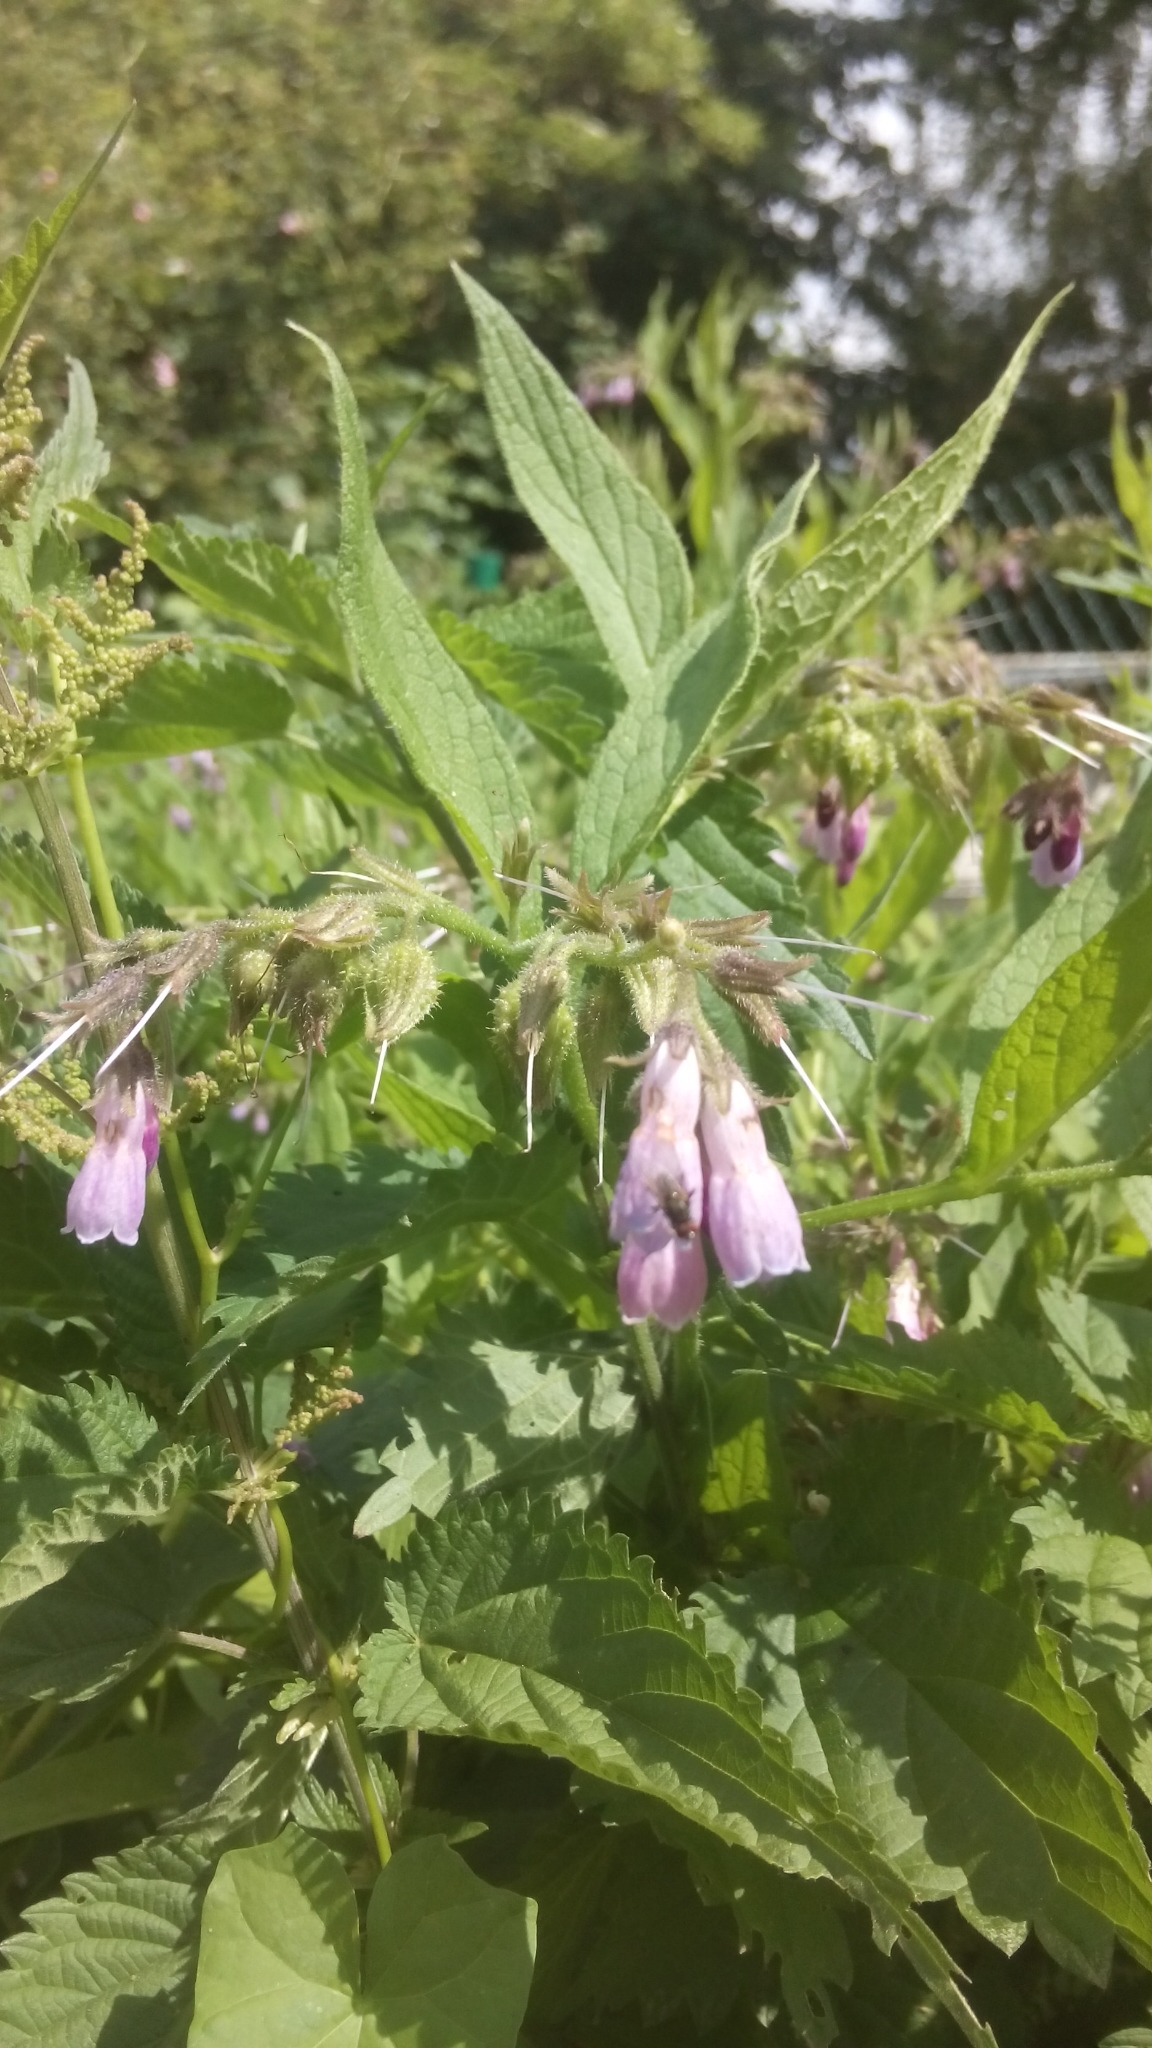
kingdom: Plantae
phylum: Tracheophyta
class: Magnoliopsida
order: Boraginales
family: Boraginaceae
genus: Symphytum
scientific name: Symphytum officinale
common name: Common comfrey
